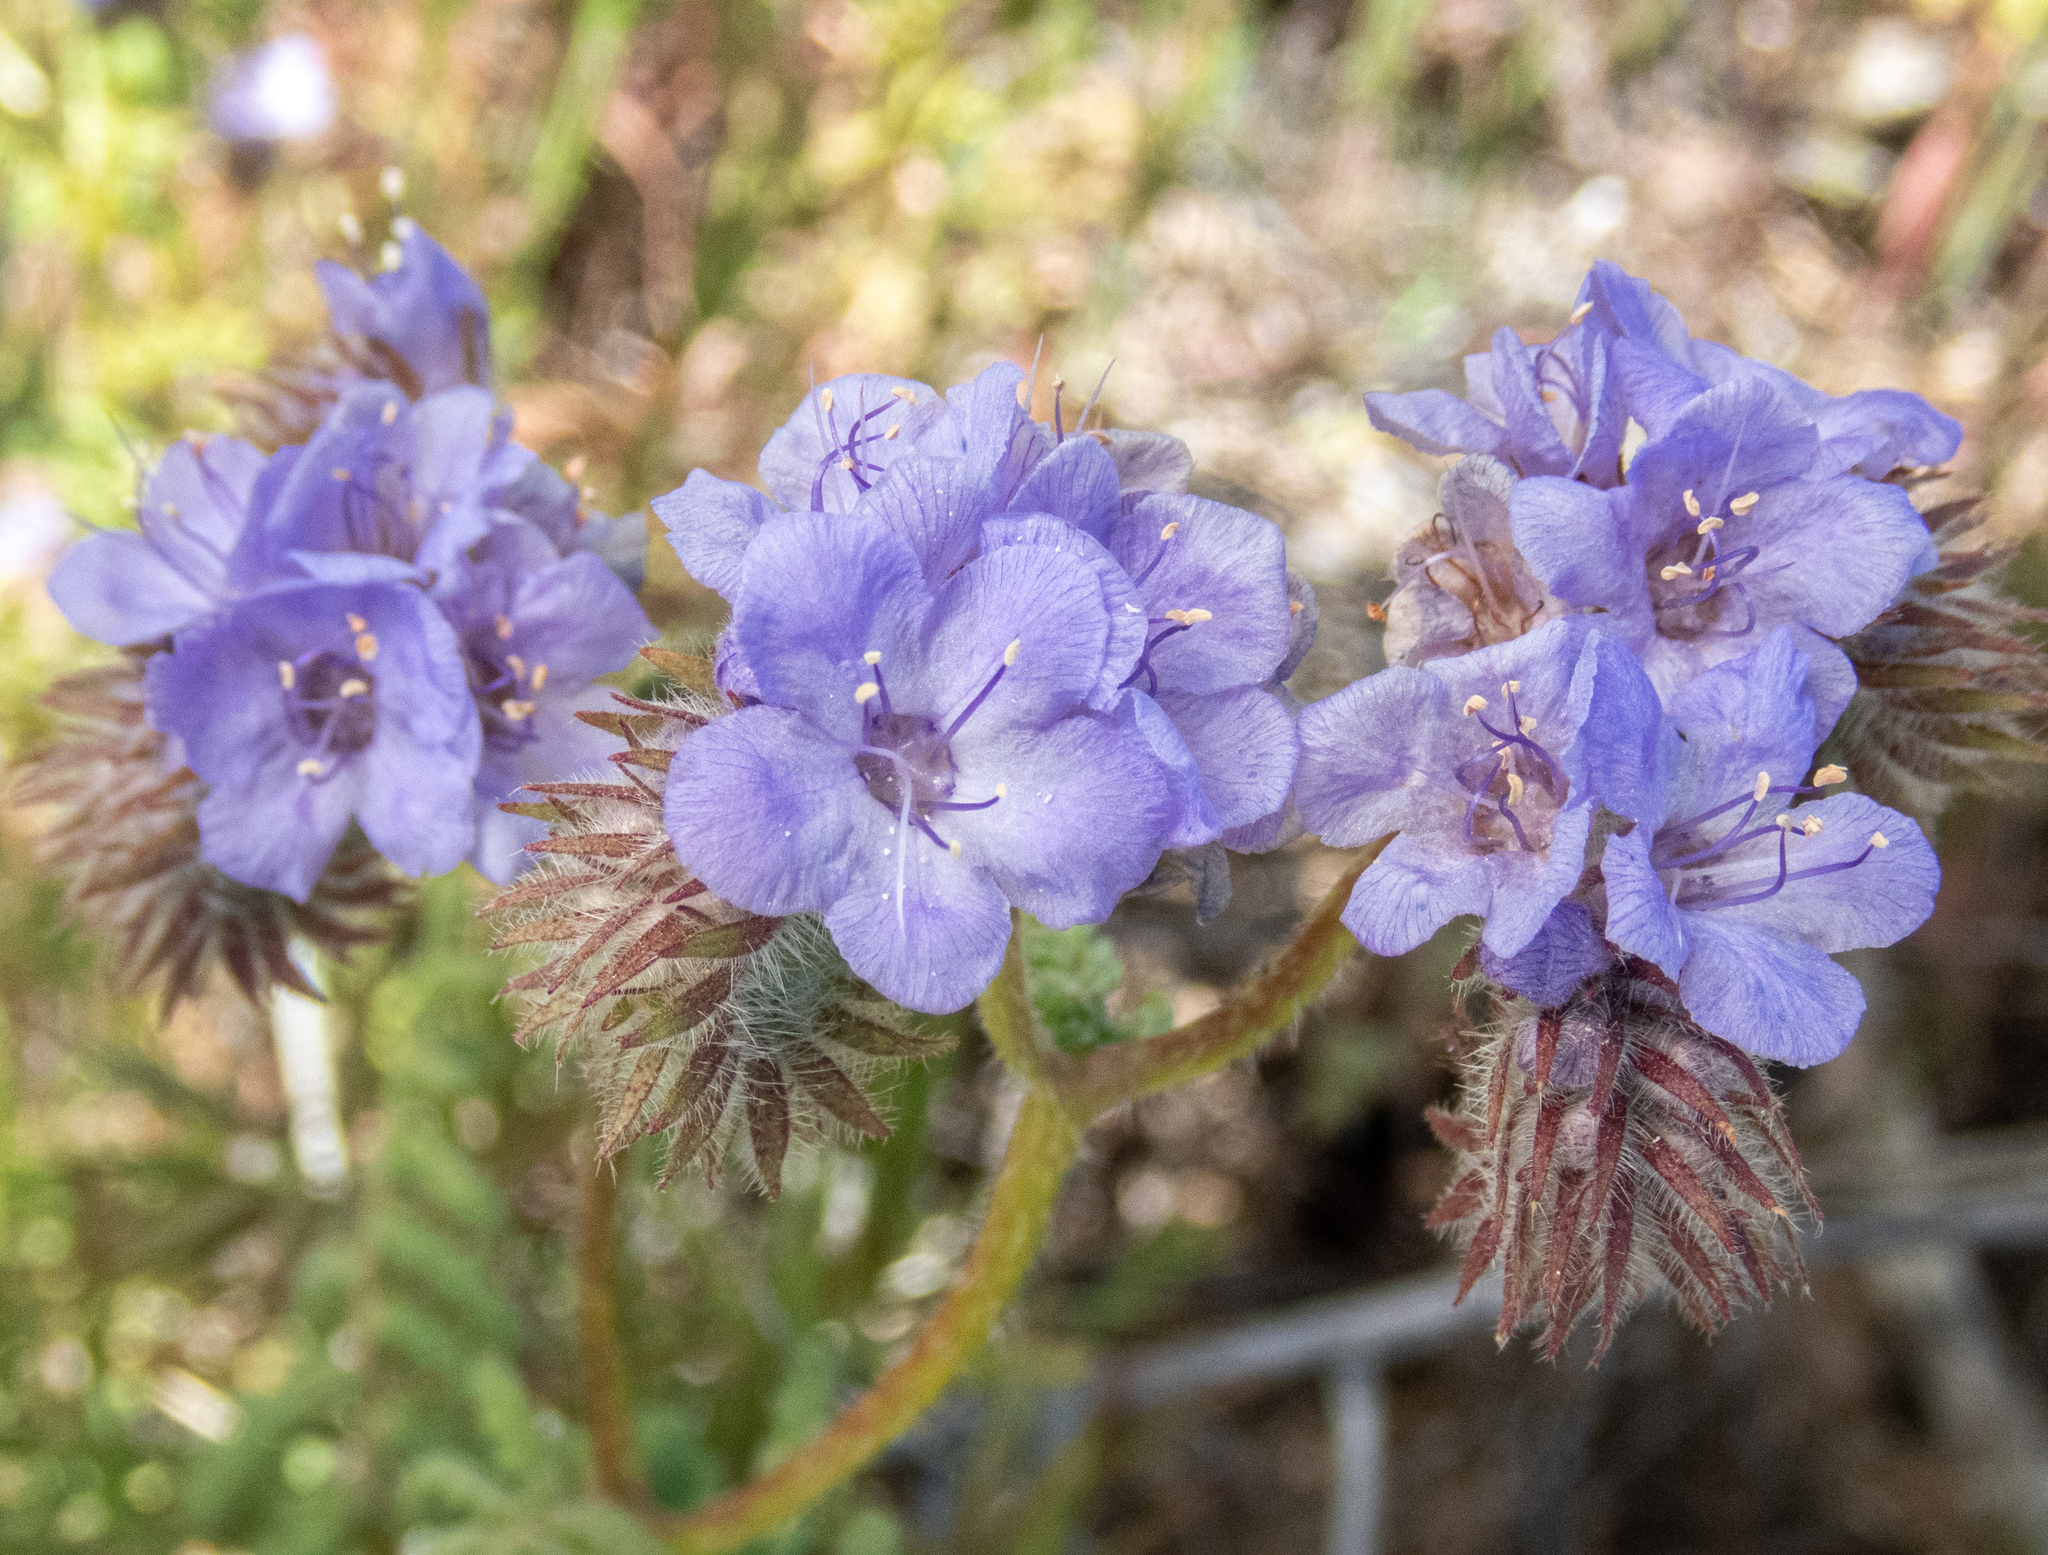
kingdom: Plantae
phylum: Tracheophyta
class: Magnoliopsida
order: Boraginales
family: Hydrophyllaceae
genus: Phacelia
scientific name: Phacelia distans
